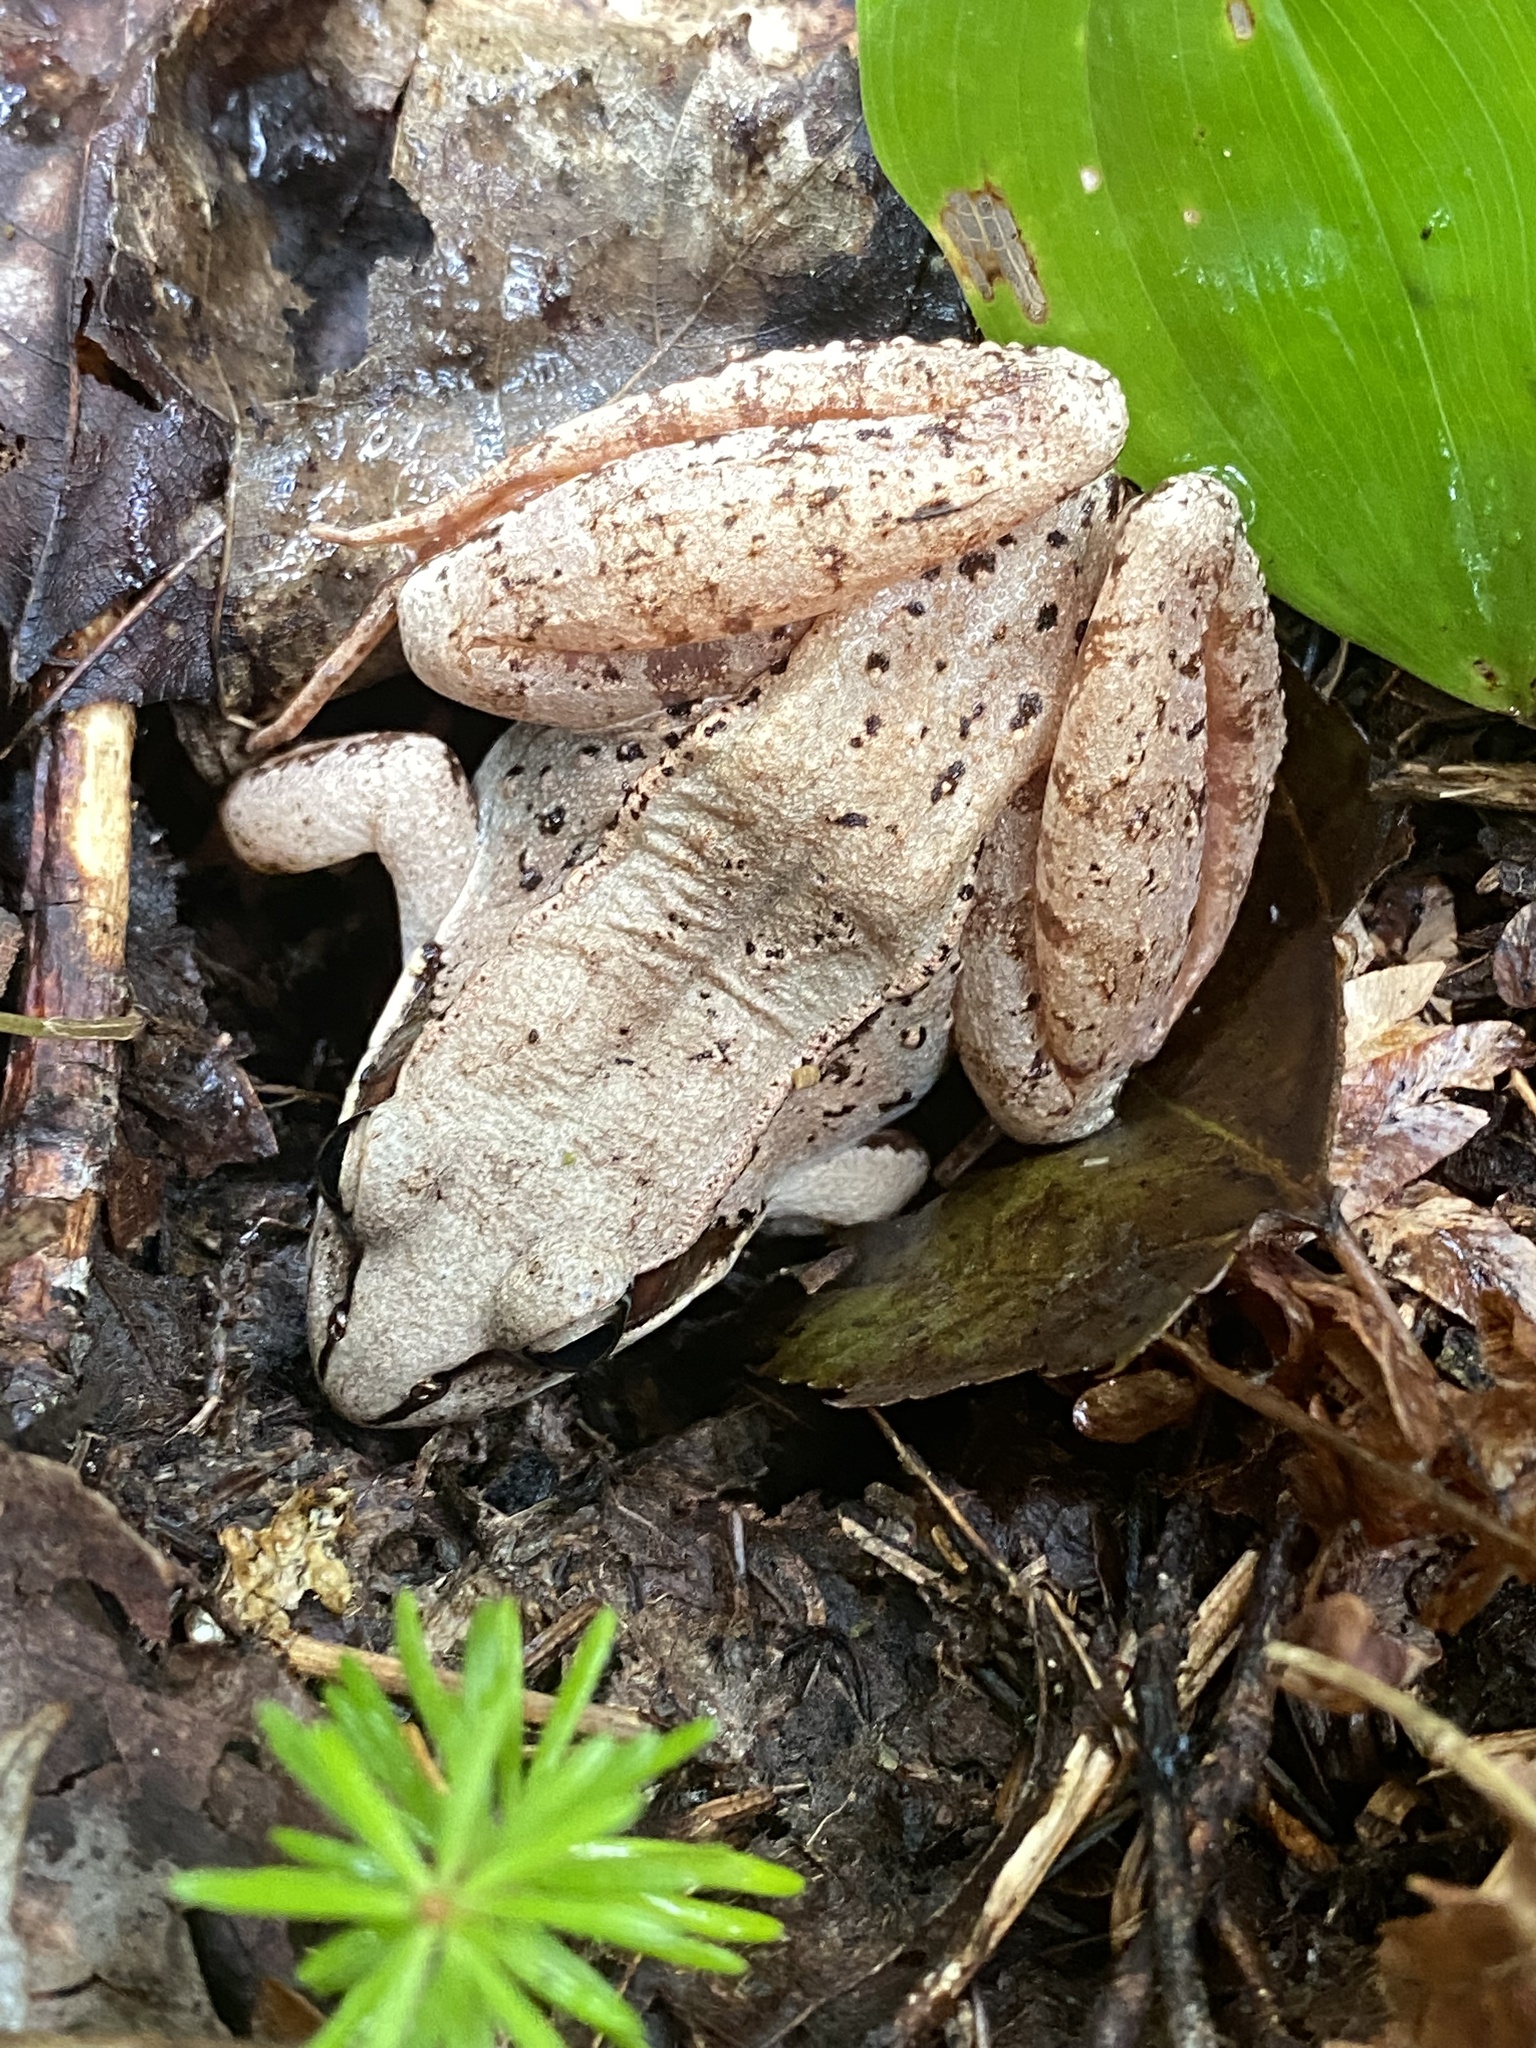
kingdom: Animalia
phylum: Chordata
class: Amphibia
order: Anura
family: Ranidae
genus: Lithobates
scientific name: Lithobates sylvaticus
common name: Wood frog
